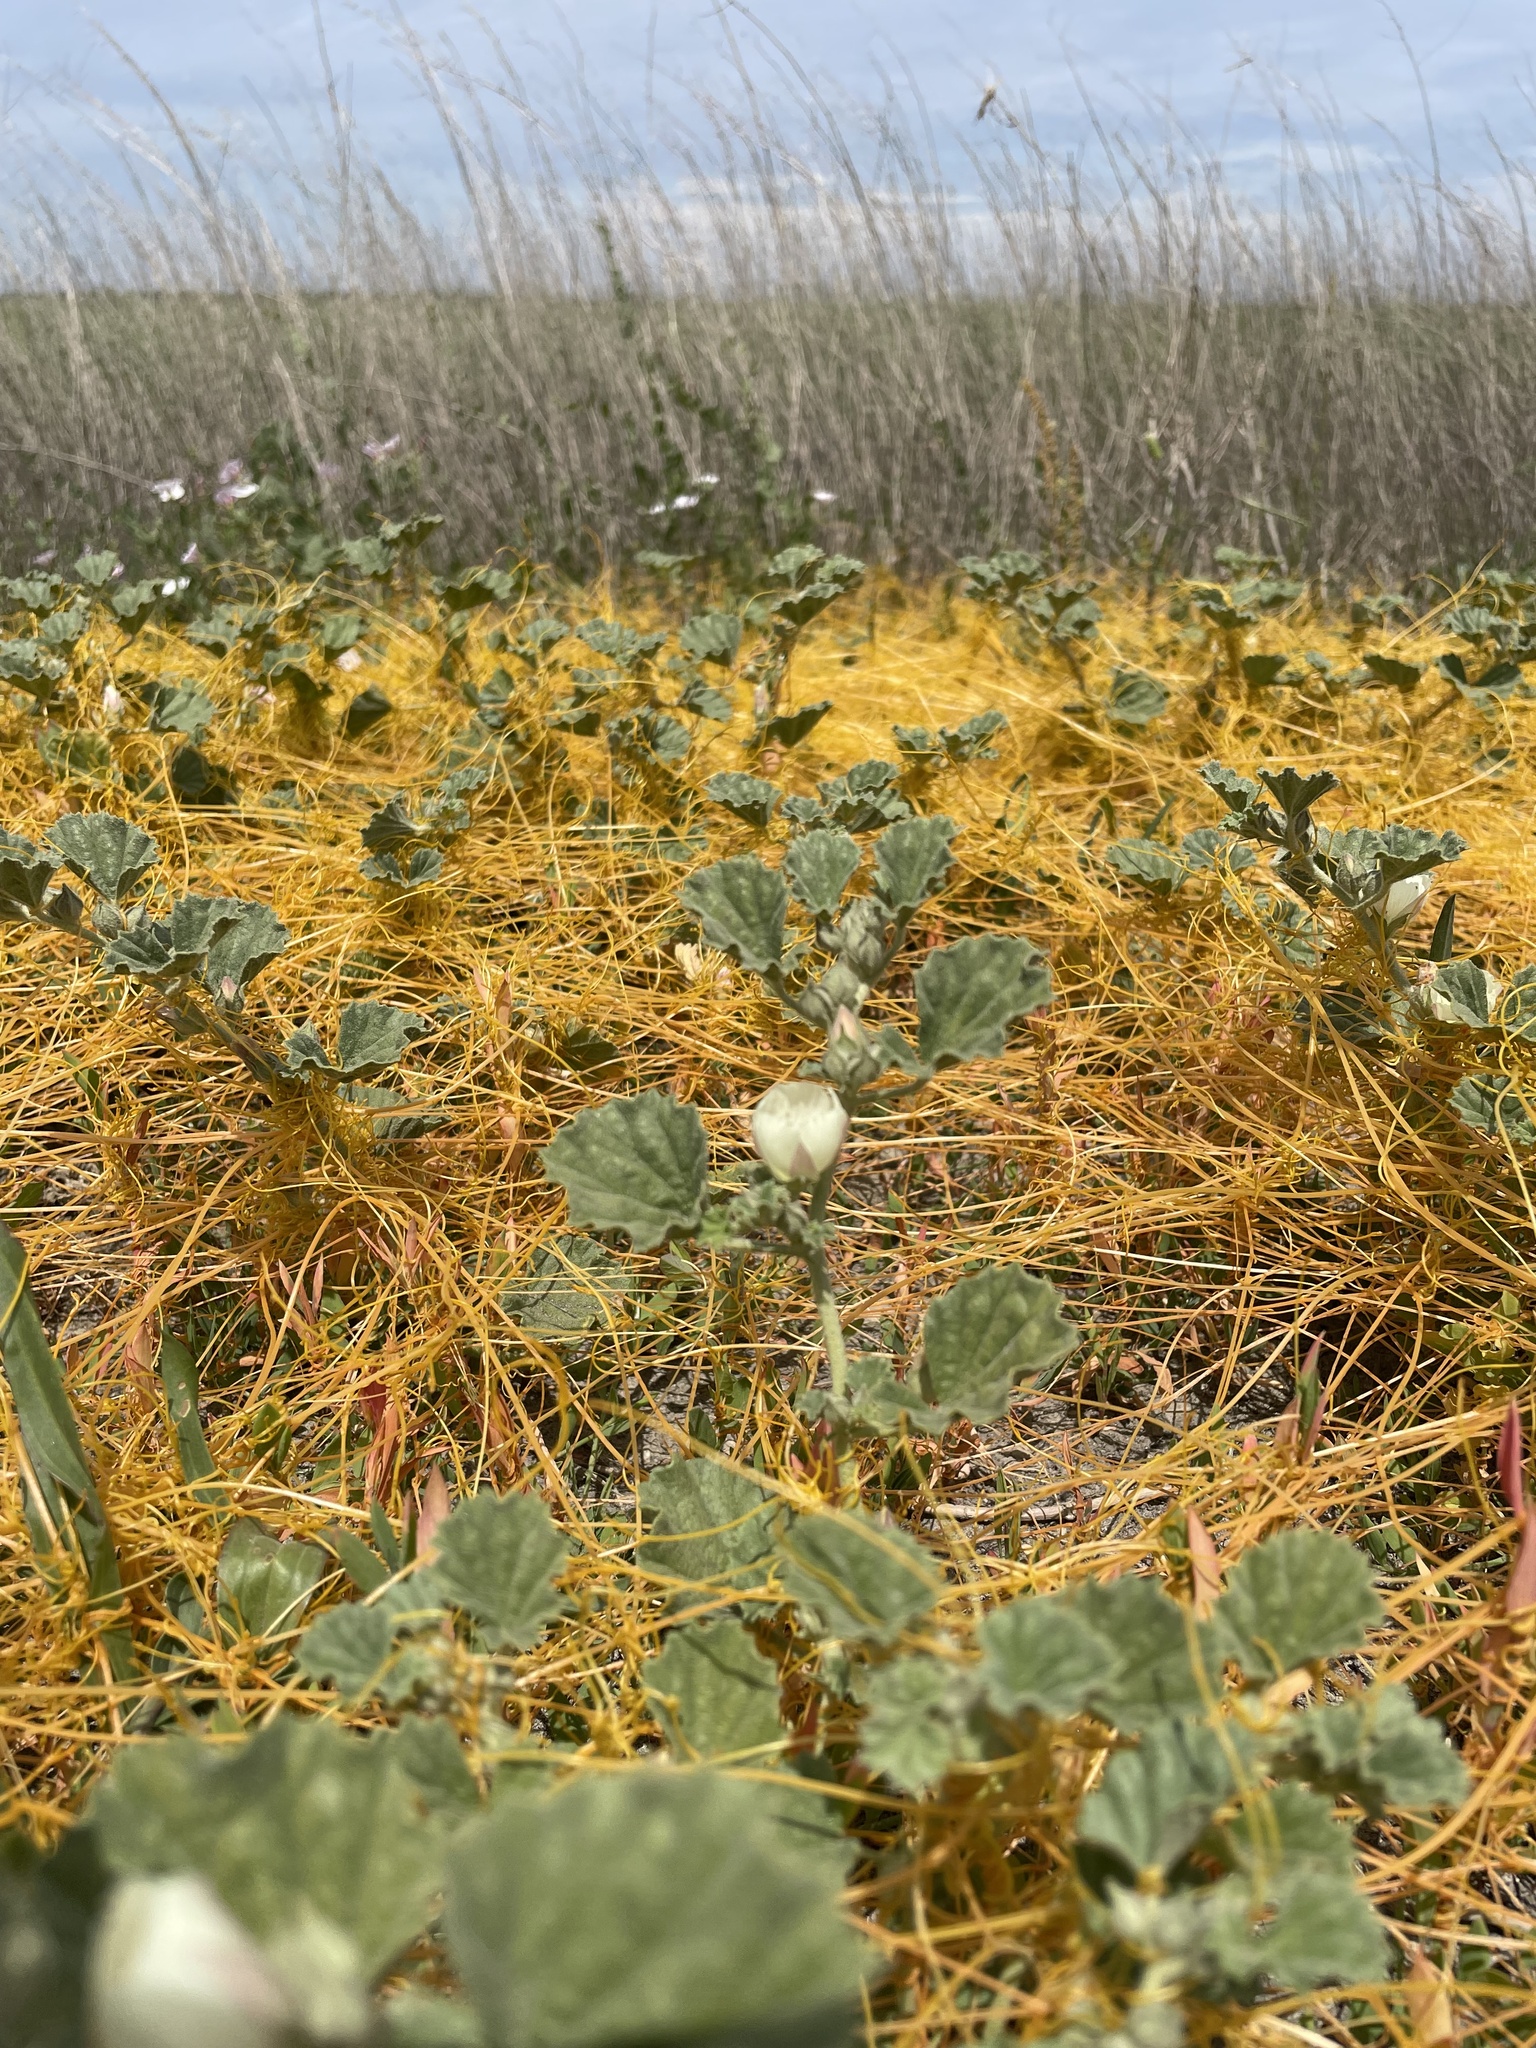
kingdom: Plantae
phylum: Tracheophyta
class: Magnoliopsida
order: Malvales
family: Malvaceae
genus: Malvella
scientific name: Malvella leprosa
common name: Alkali-mallow
